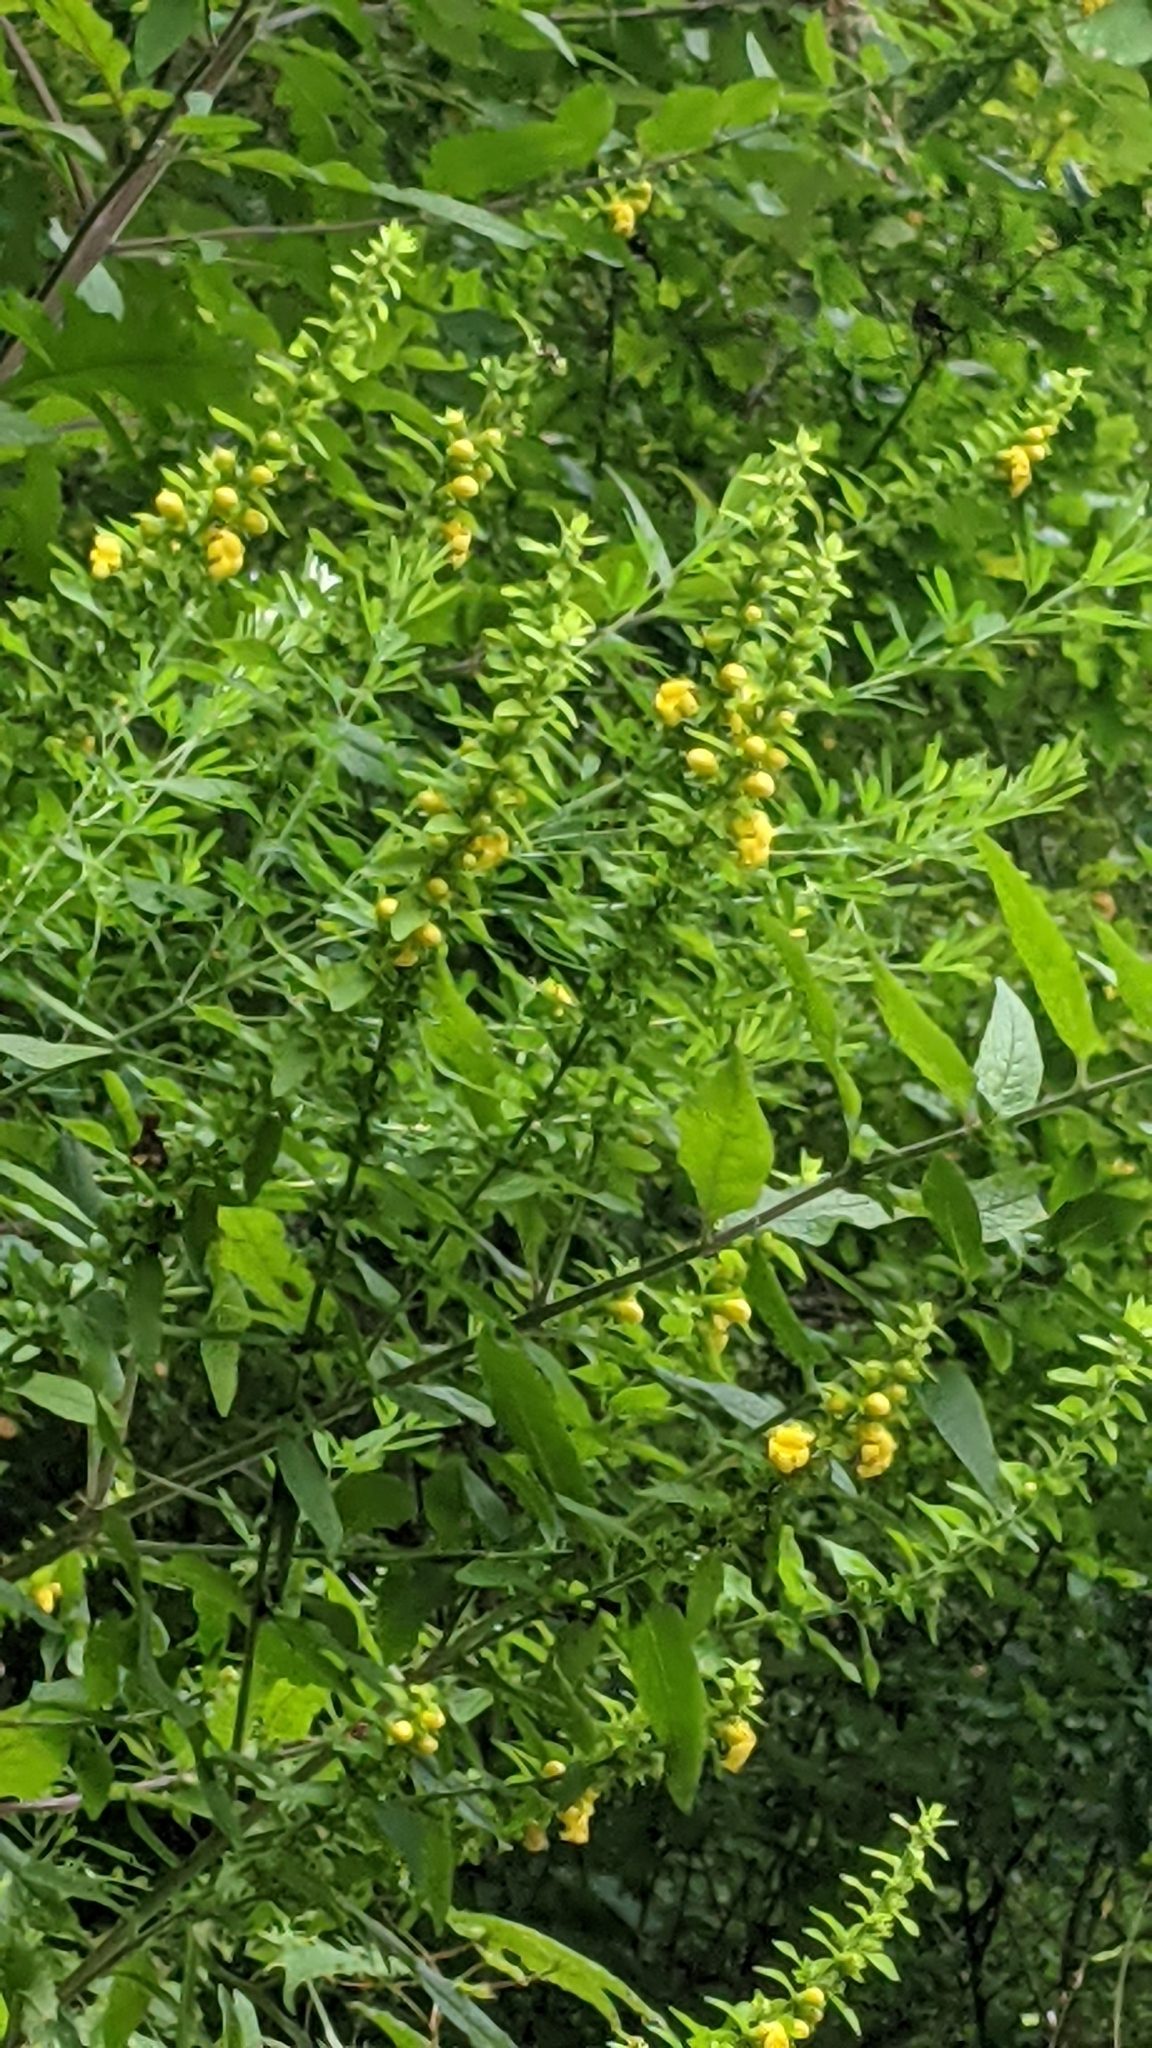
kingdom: Plantae
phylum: Tracheophyta
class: Magnoliopsida
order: Lamiales
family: Orobanchaceae
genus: Dasistoma
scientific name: Dasistoma macrophyllum
